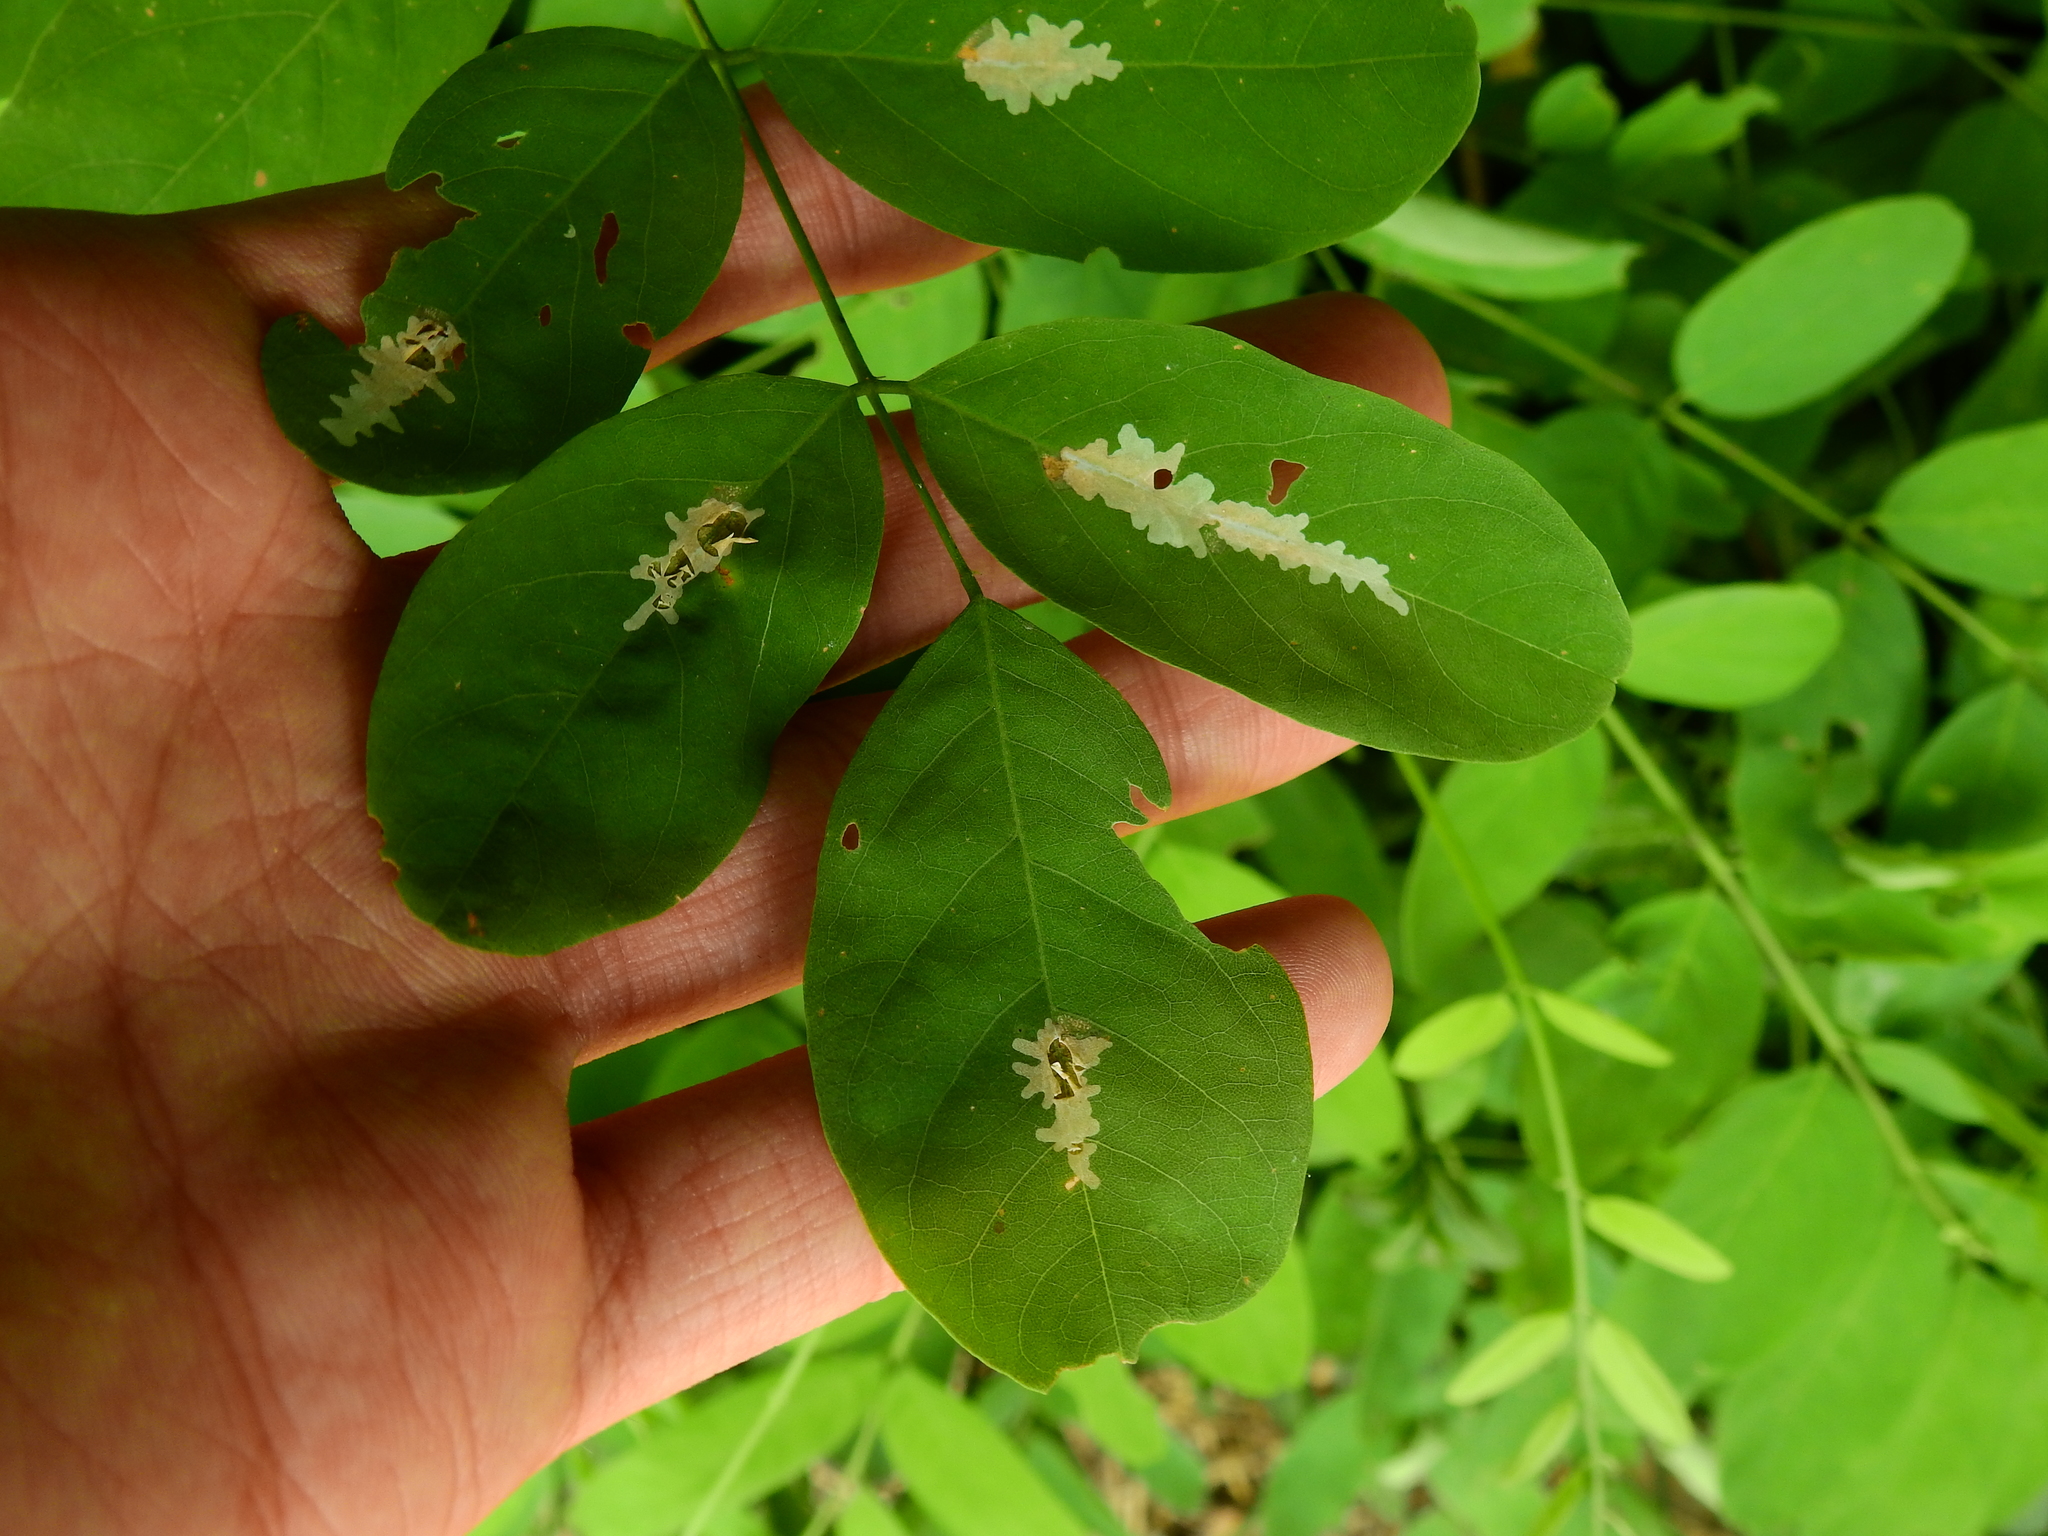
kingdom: Animalia
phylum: Arthropoda
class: Insecta
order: Lepidoptera
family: Gracillariidae
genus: Parectopa
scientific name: Parectopa robiniella
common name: Locust digitate leafminer
